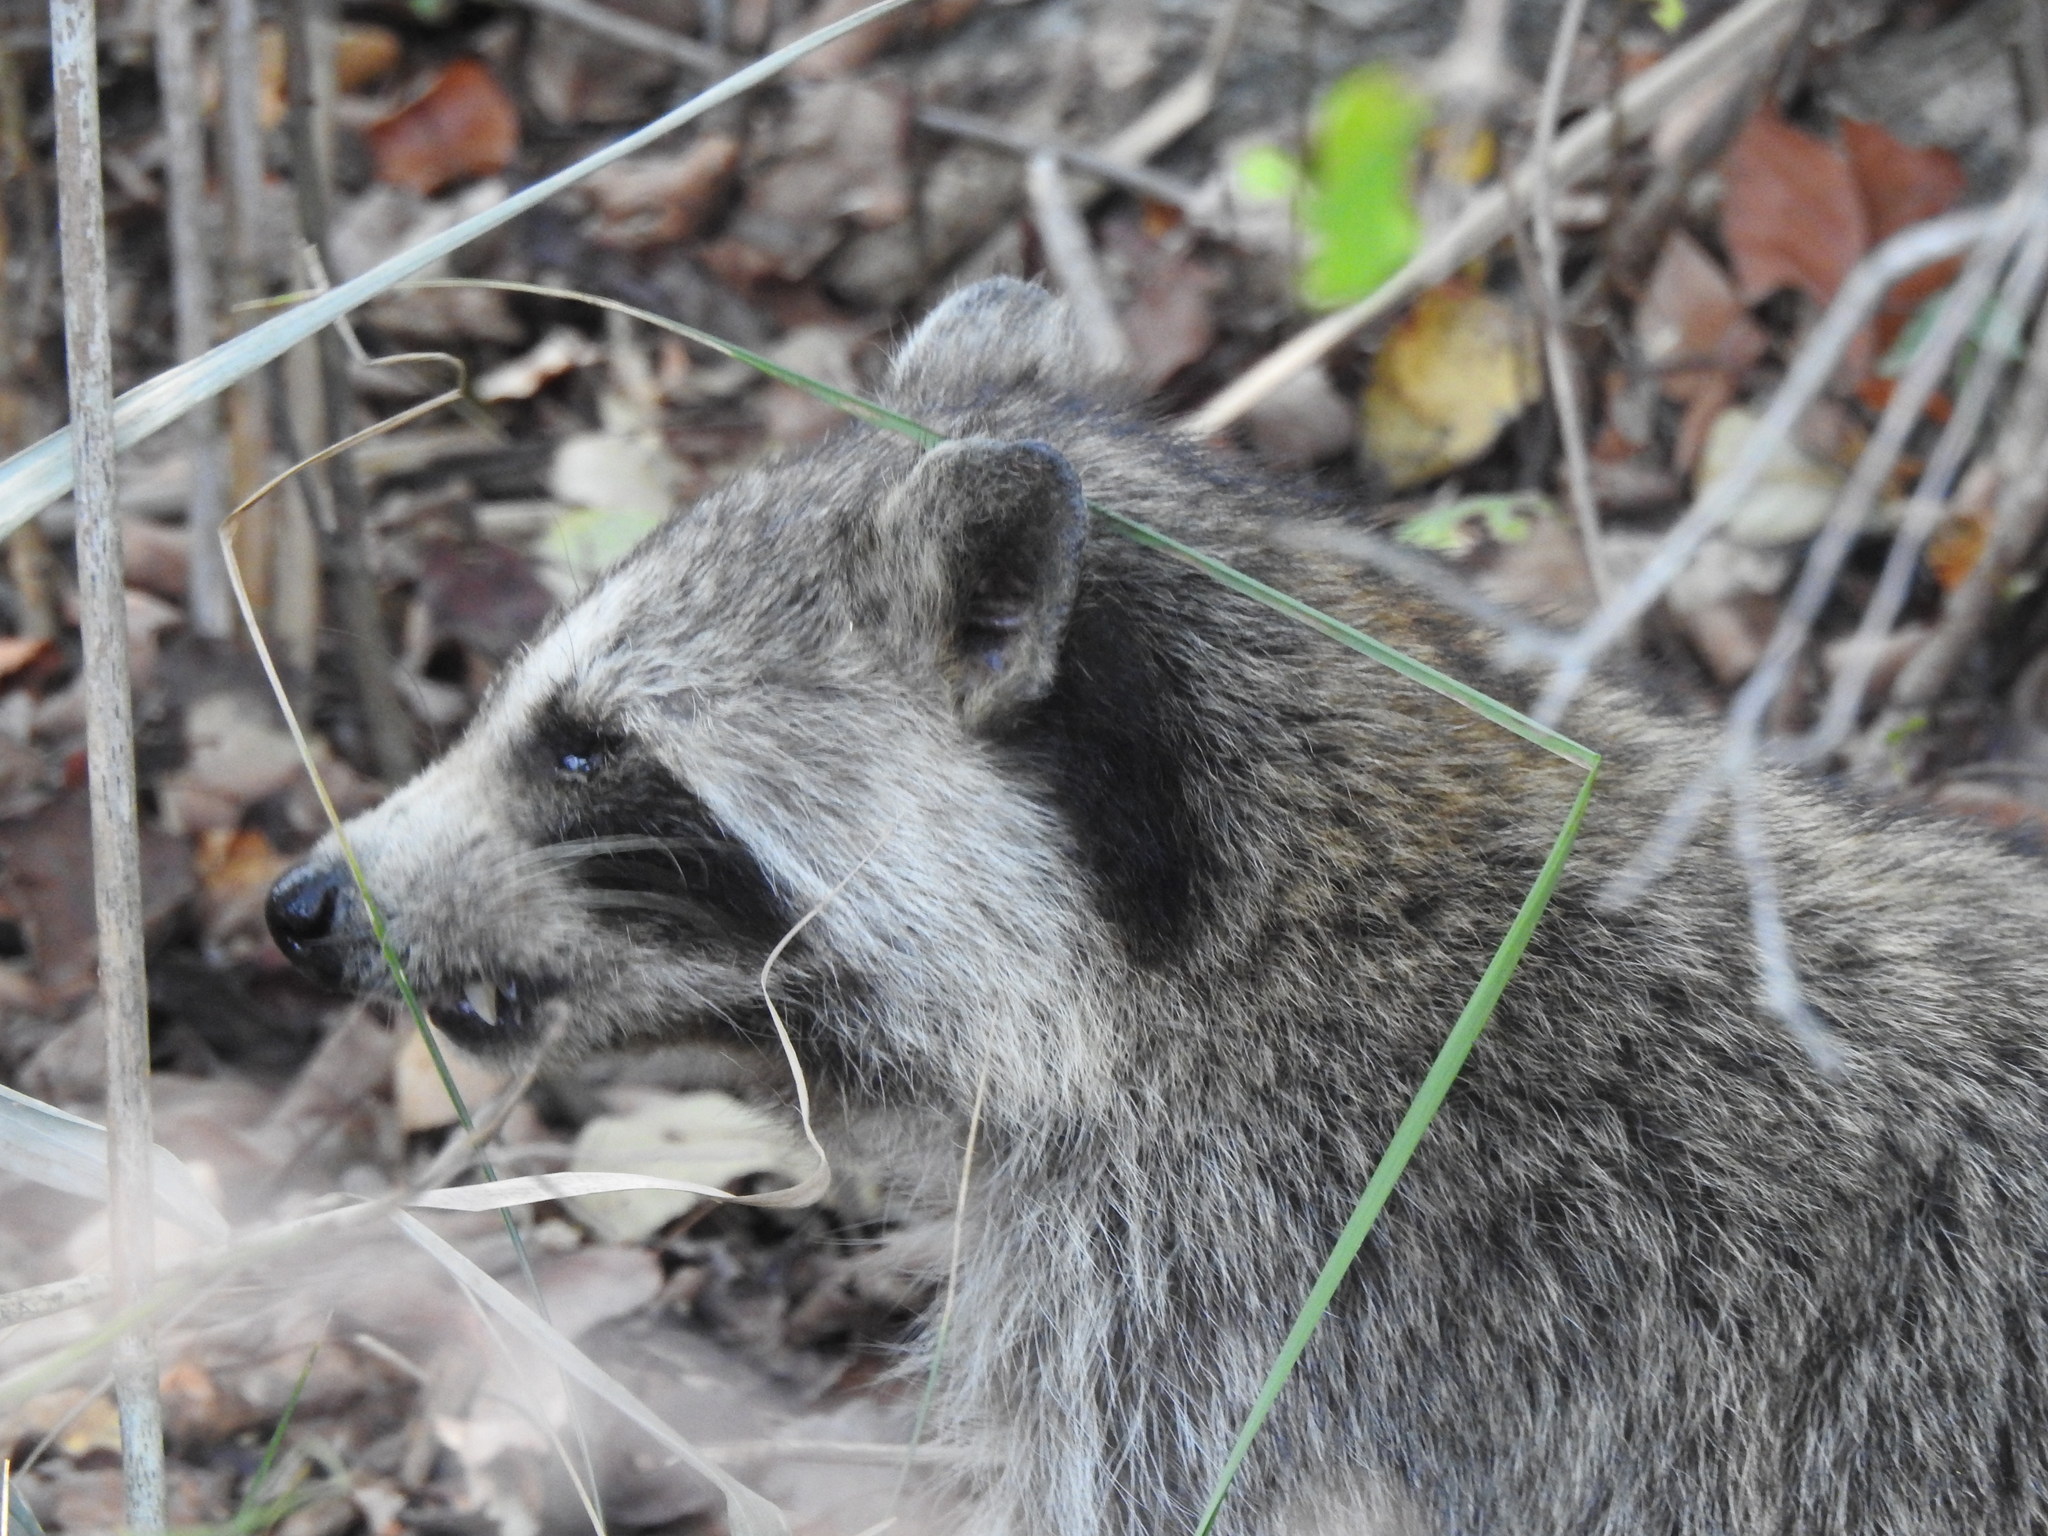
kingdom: Animalia
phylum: Chordata
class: Mammalia
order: Carnivora
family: Procyonidae
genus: Procyon
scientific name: Procyon lotor
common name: Raccoon
